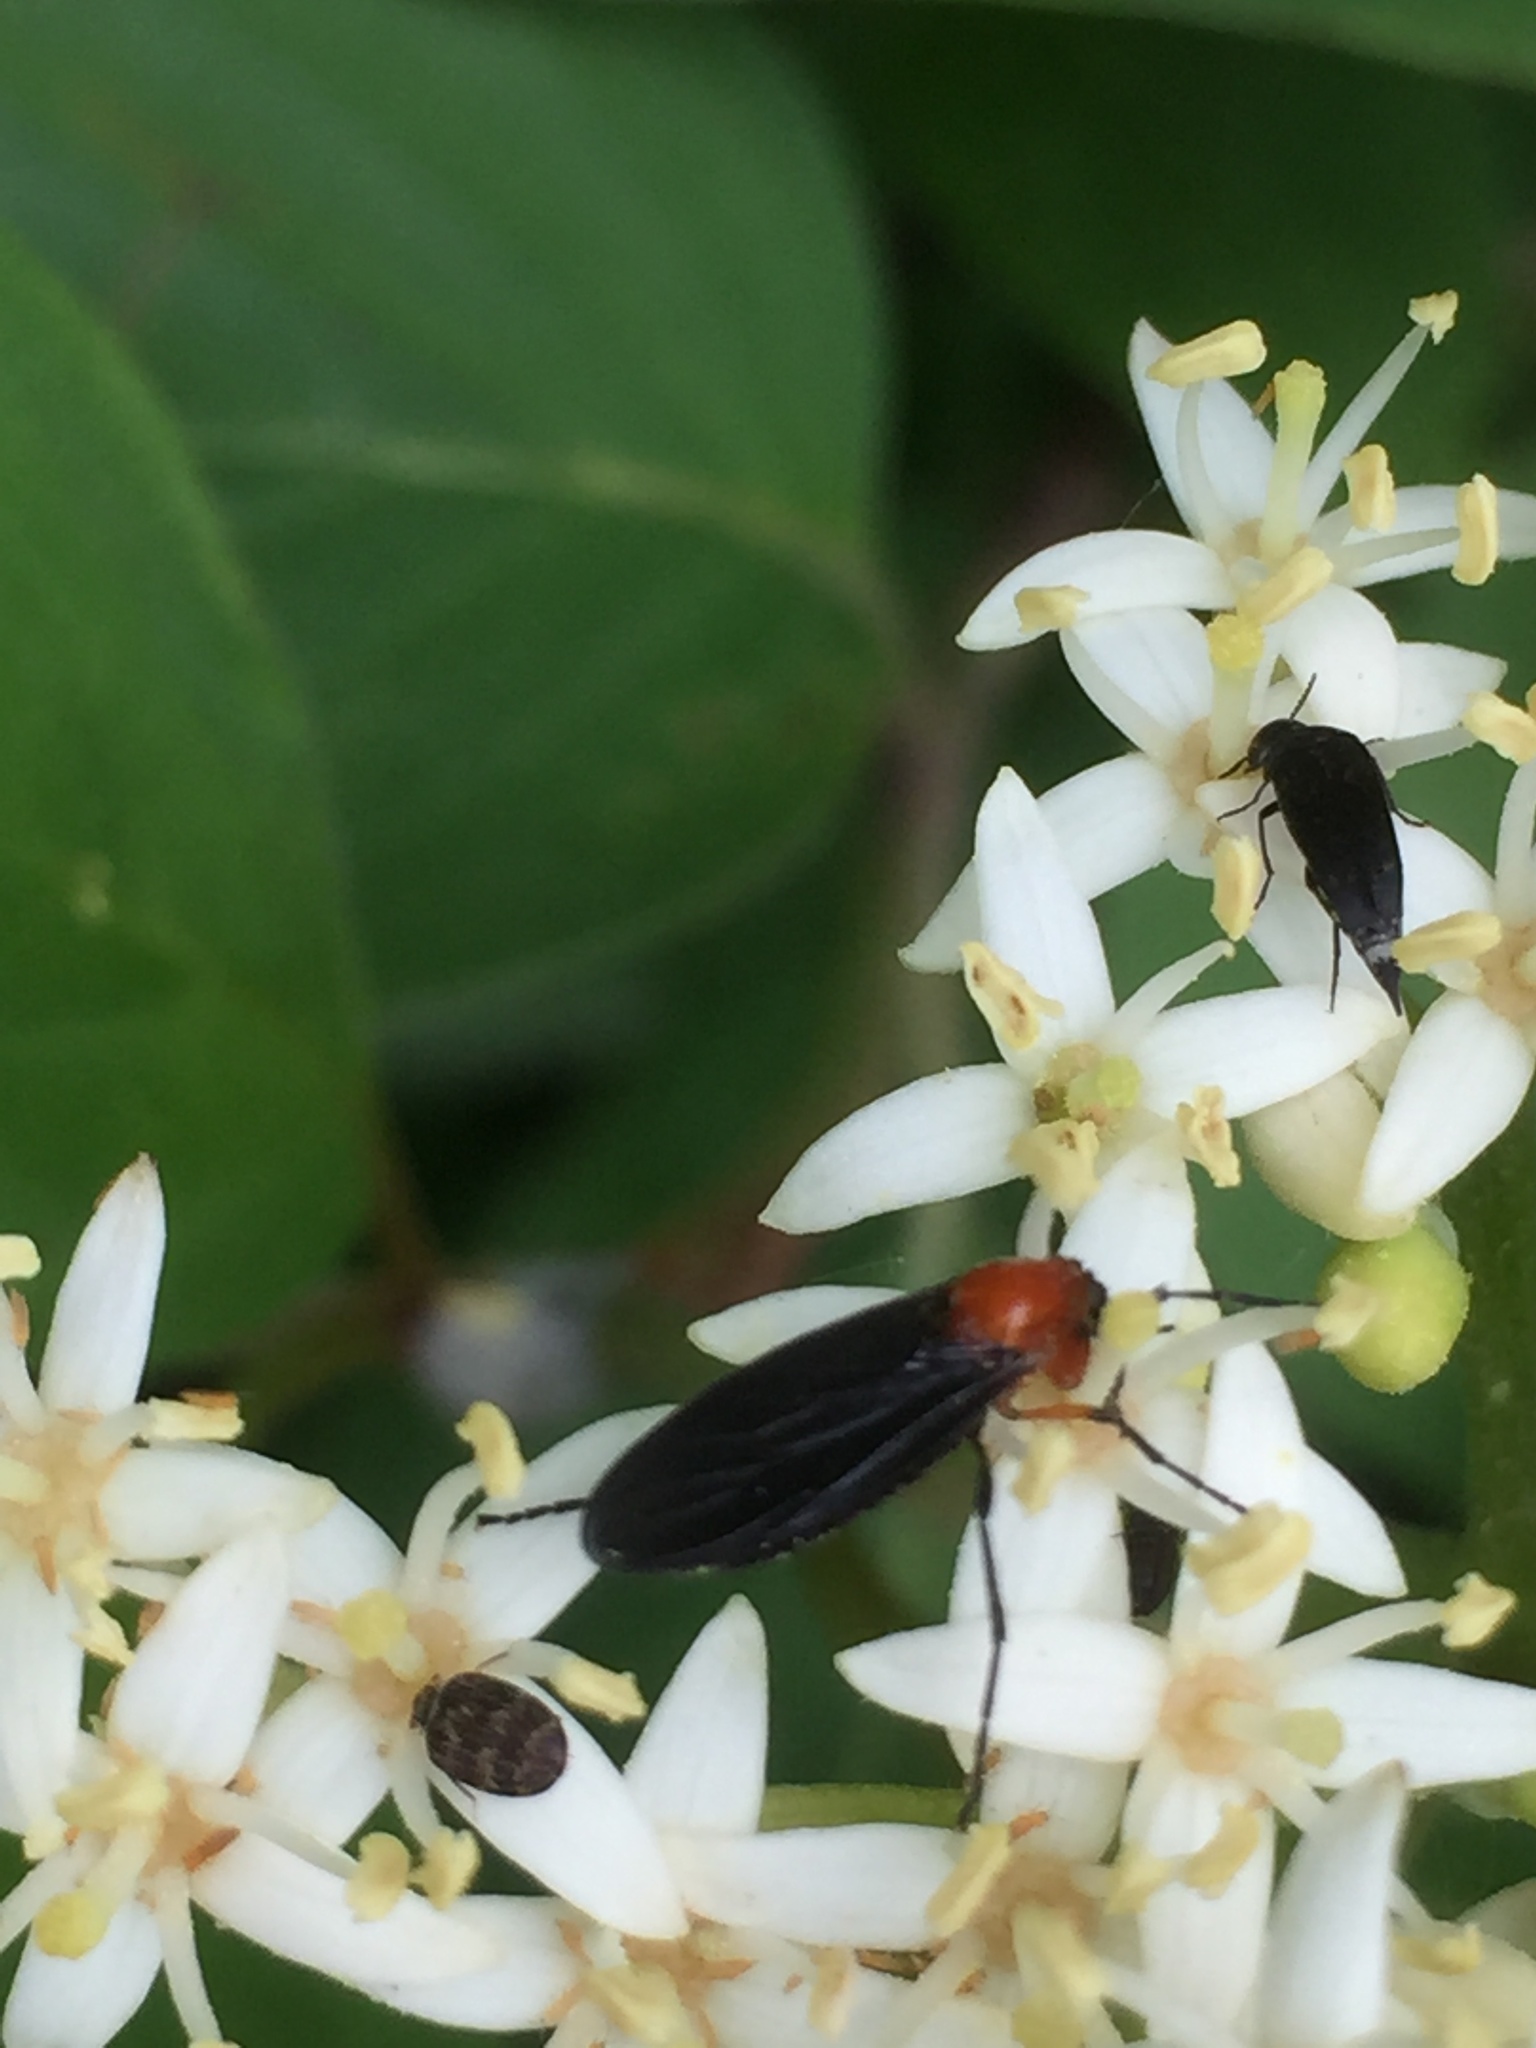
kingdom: Animalia
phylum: Arthropoda
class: Insecta
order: Diptera
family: Bibionidae
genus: Dilophus
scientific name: Dilophus spinipes
